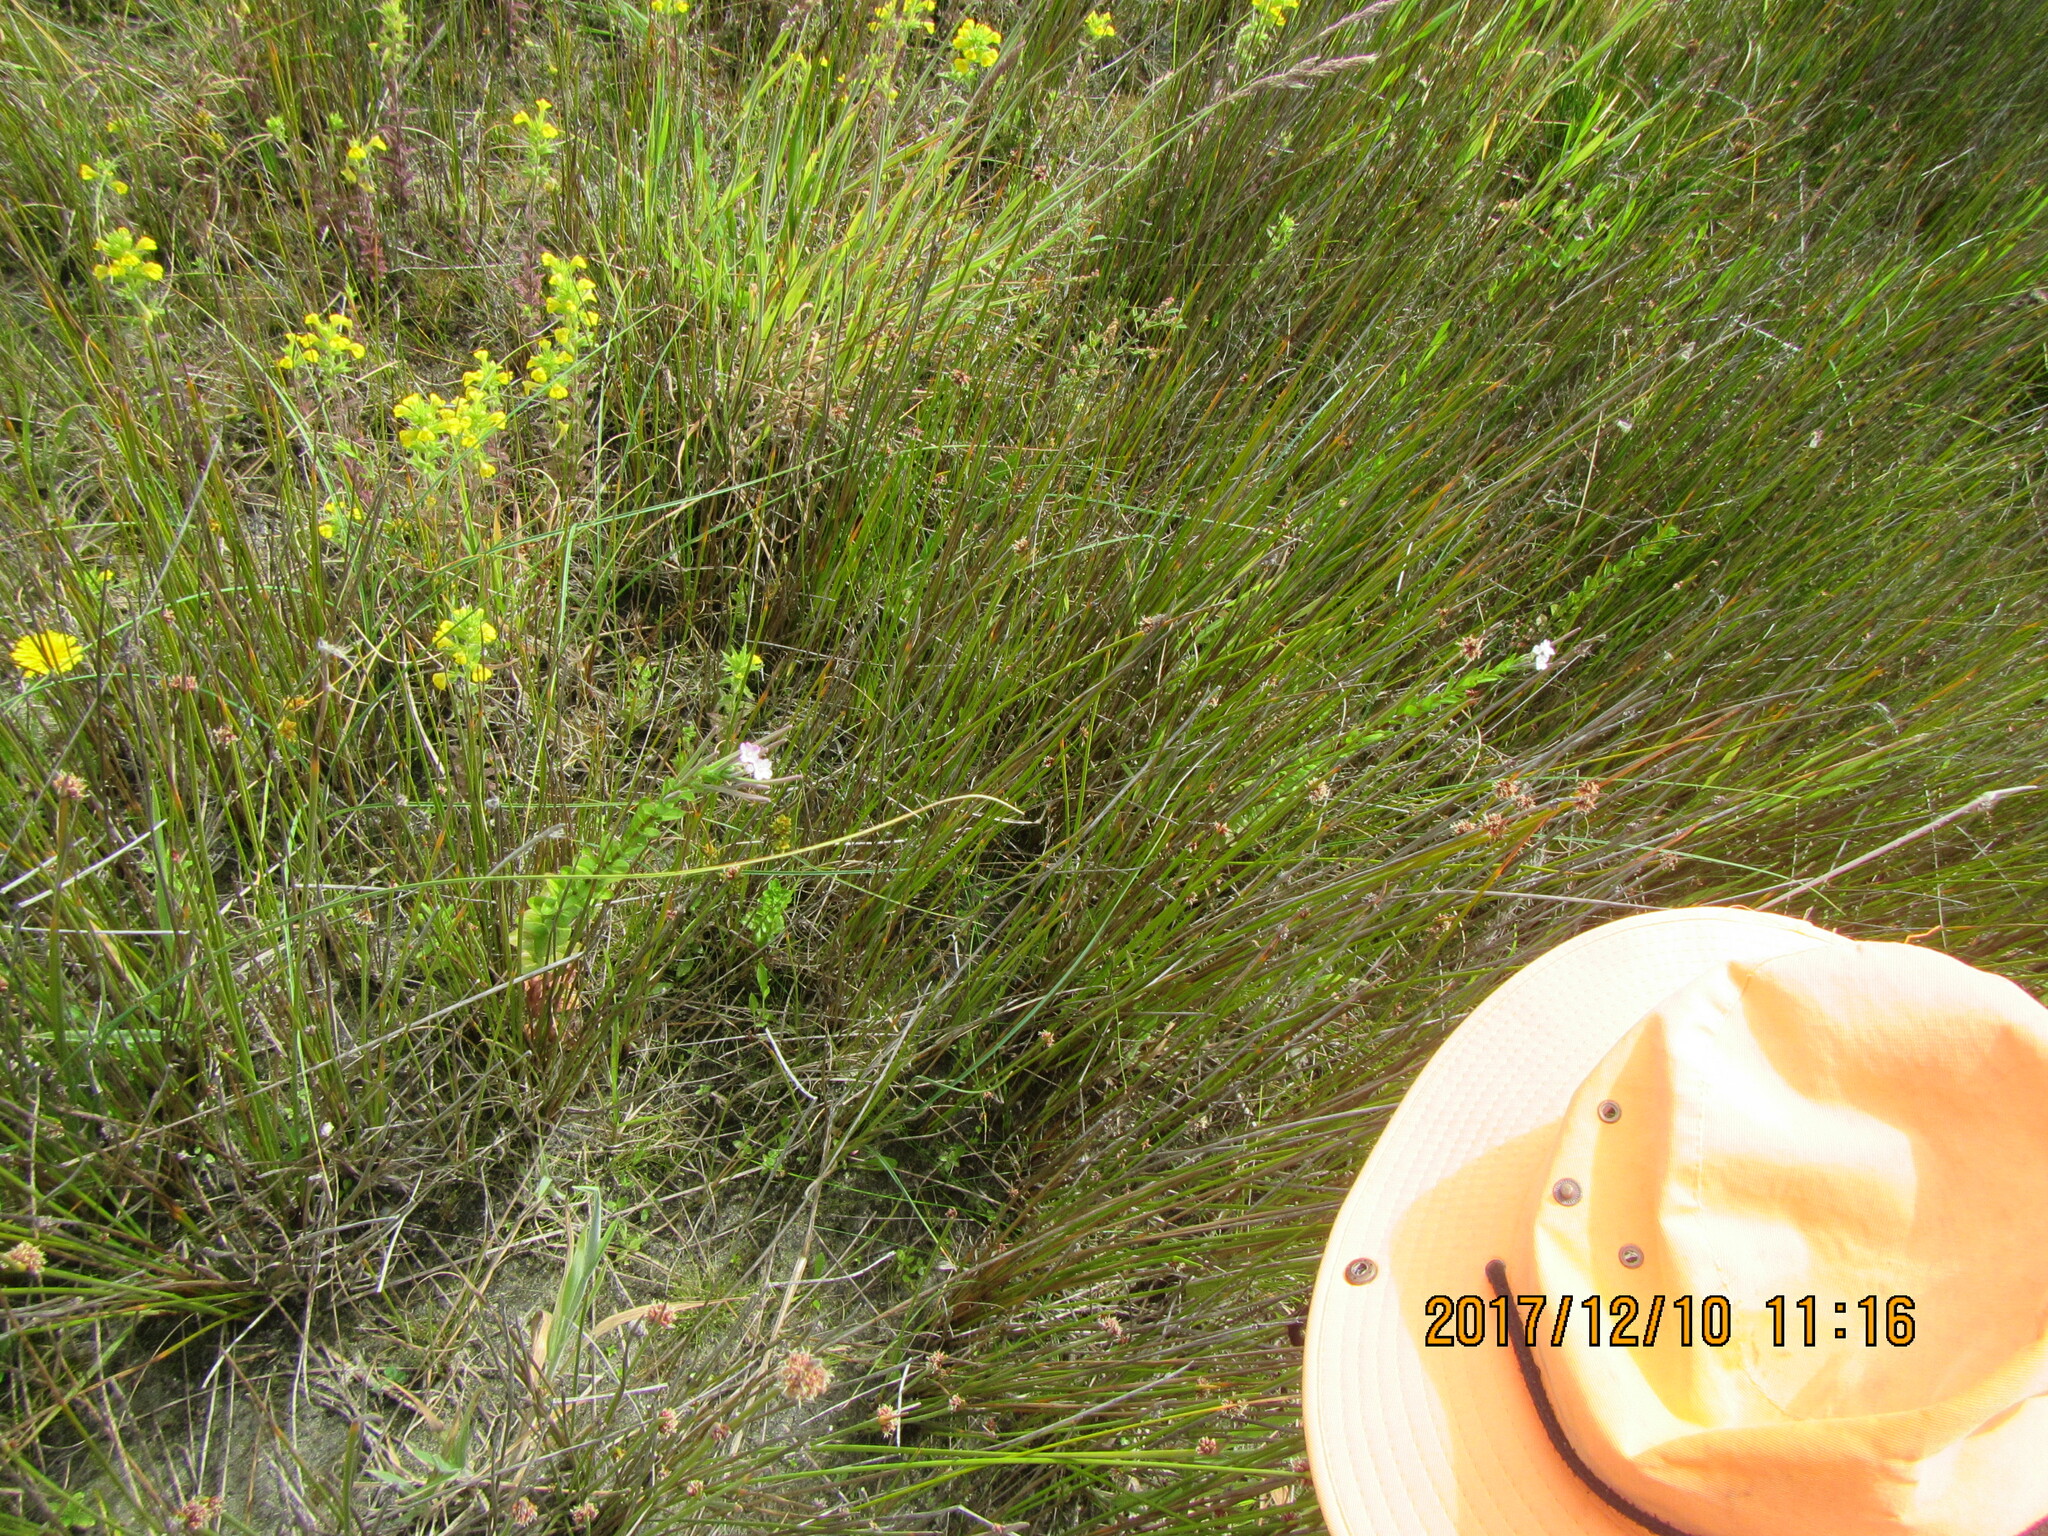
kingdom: Plantae
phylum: Tracheophyta
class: Magnoliopsida
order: Myrtales
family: Onagraceae
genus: Epilobium
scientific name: Epilobium billardiereanum
